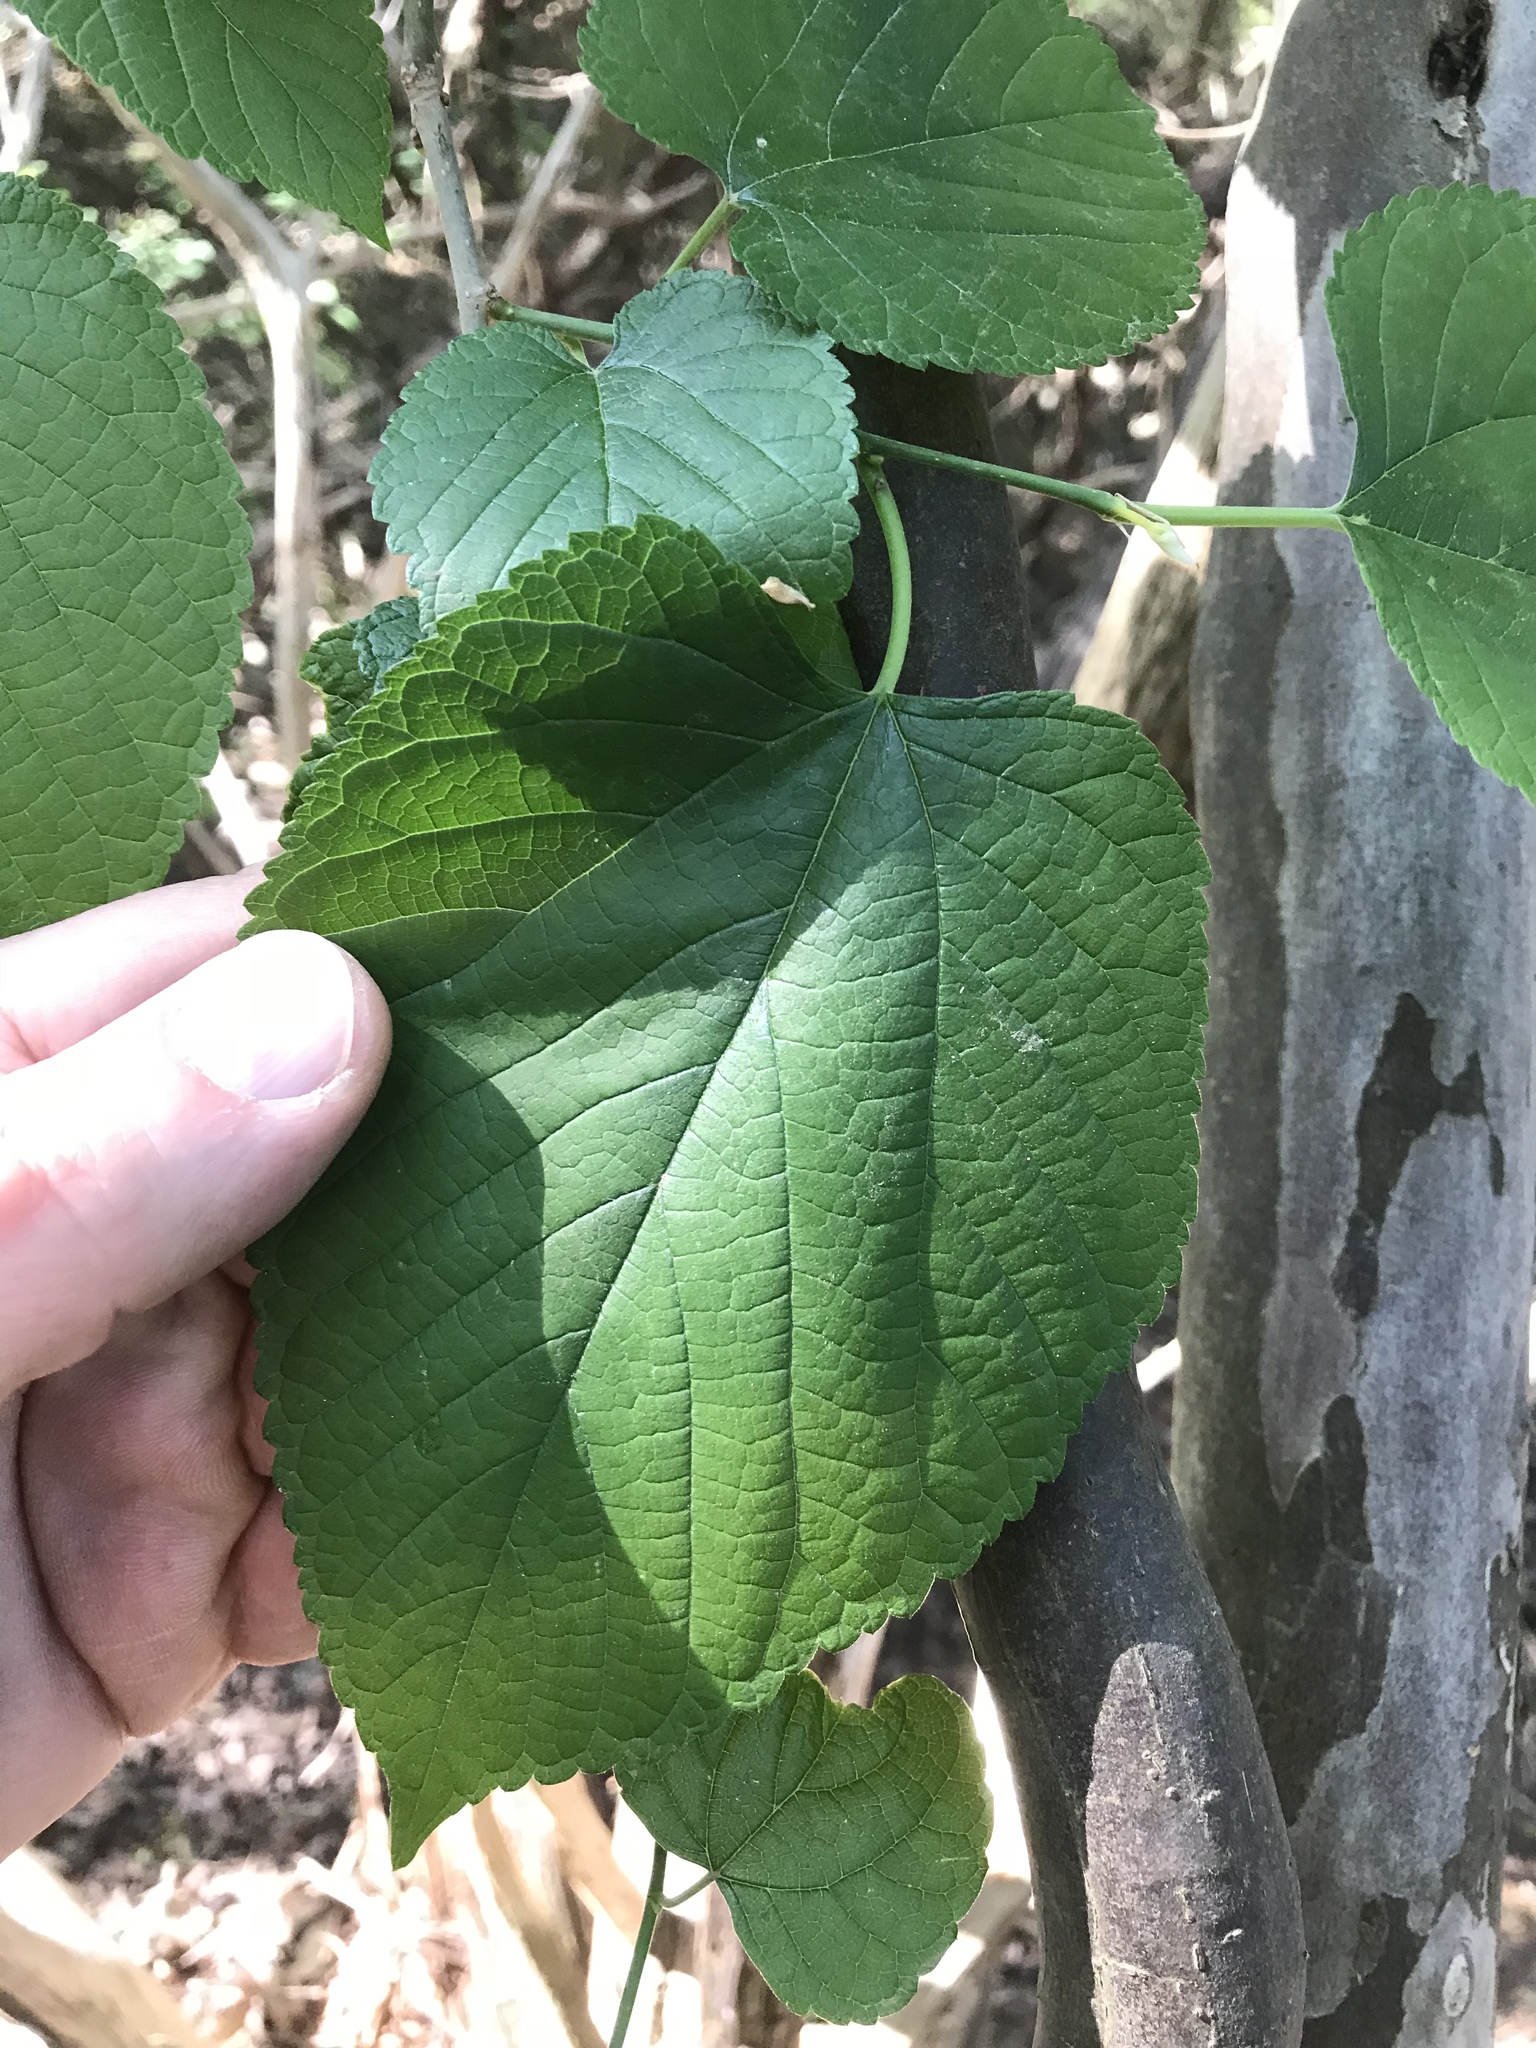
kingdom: Plantae
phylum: Tracheophyta
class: Magnoliopsida
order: Rosales
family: Moraceae
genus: Morus
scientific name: Morus rubra
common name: Red mulberry
